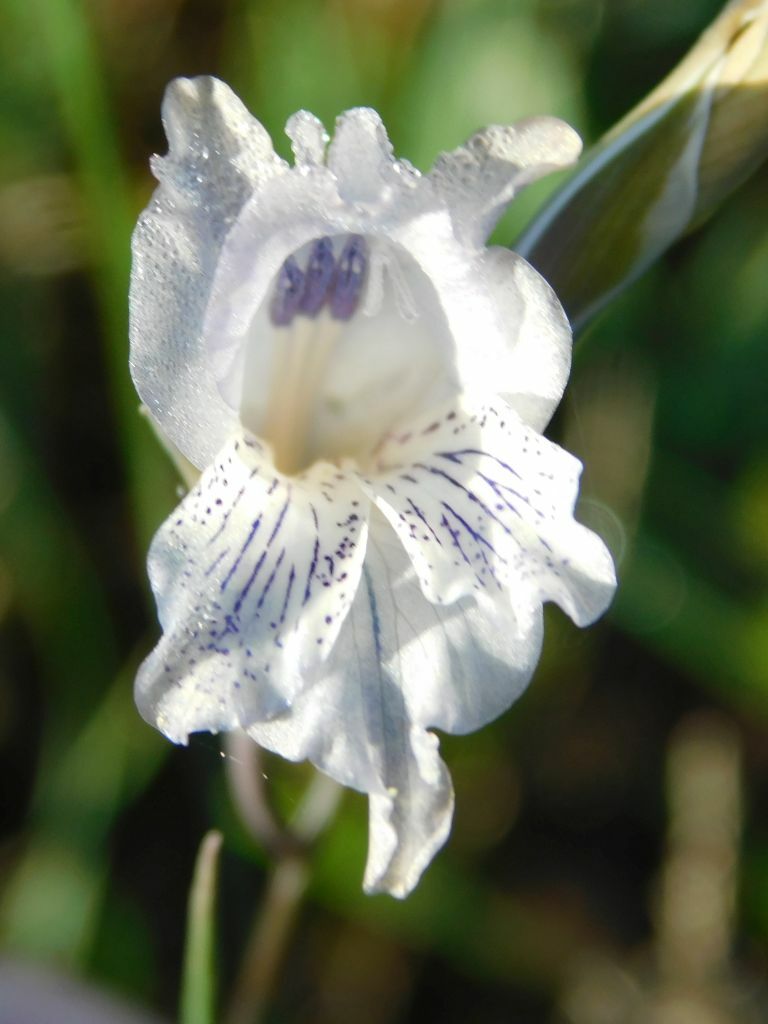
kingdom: Plantae
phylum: Tracheophyta
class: Liliopsida
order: Asparagales
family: Iridaceae
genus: Gladiolus
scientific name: Gladiolus gracilis
